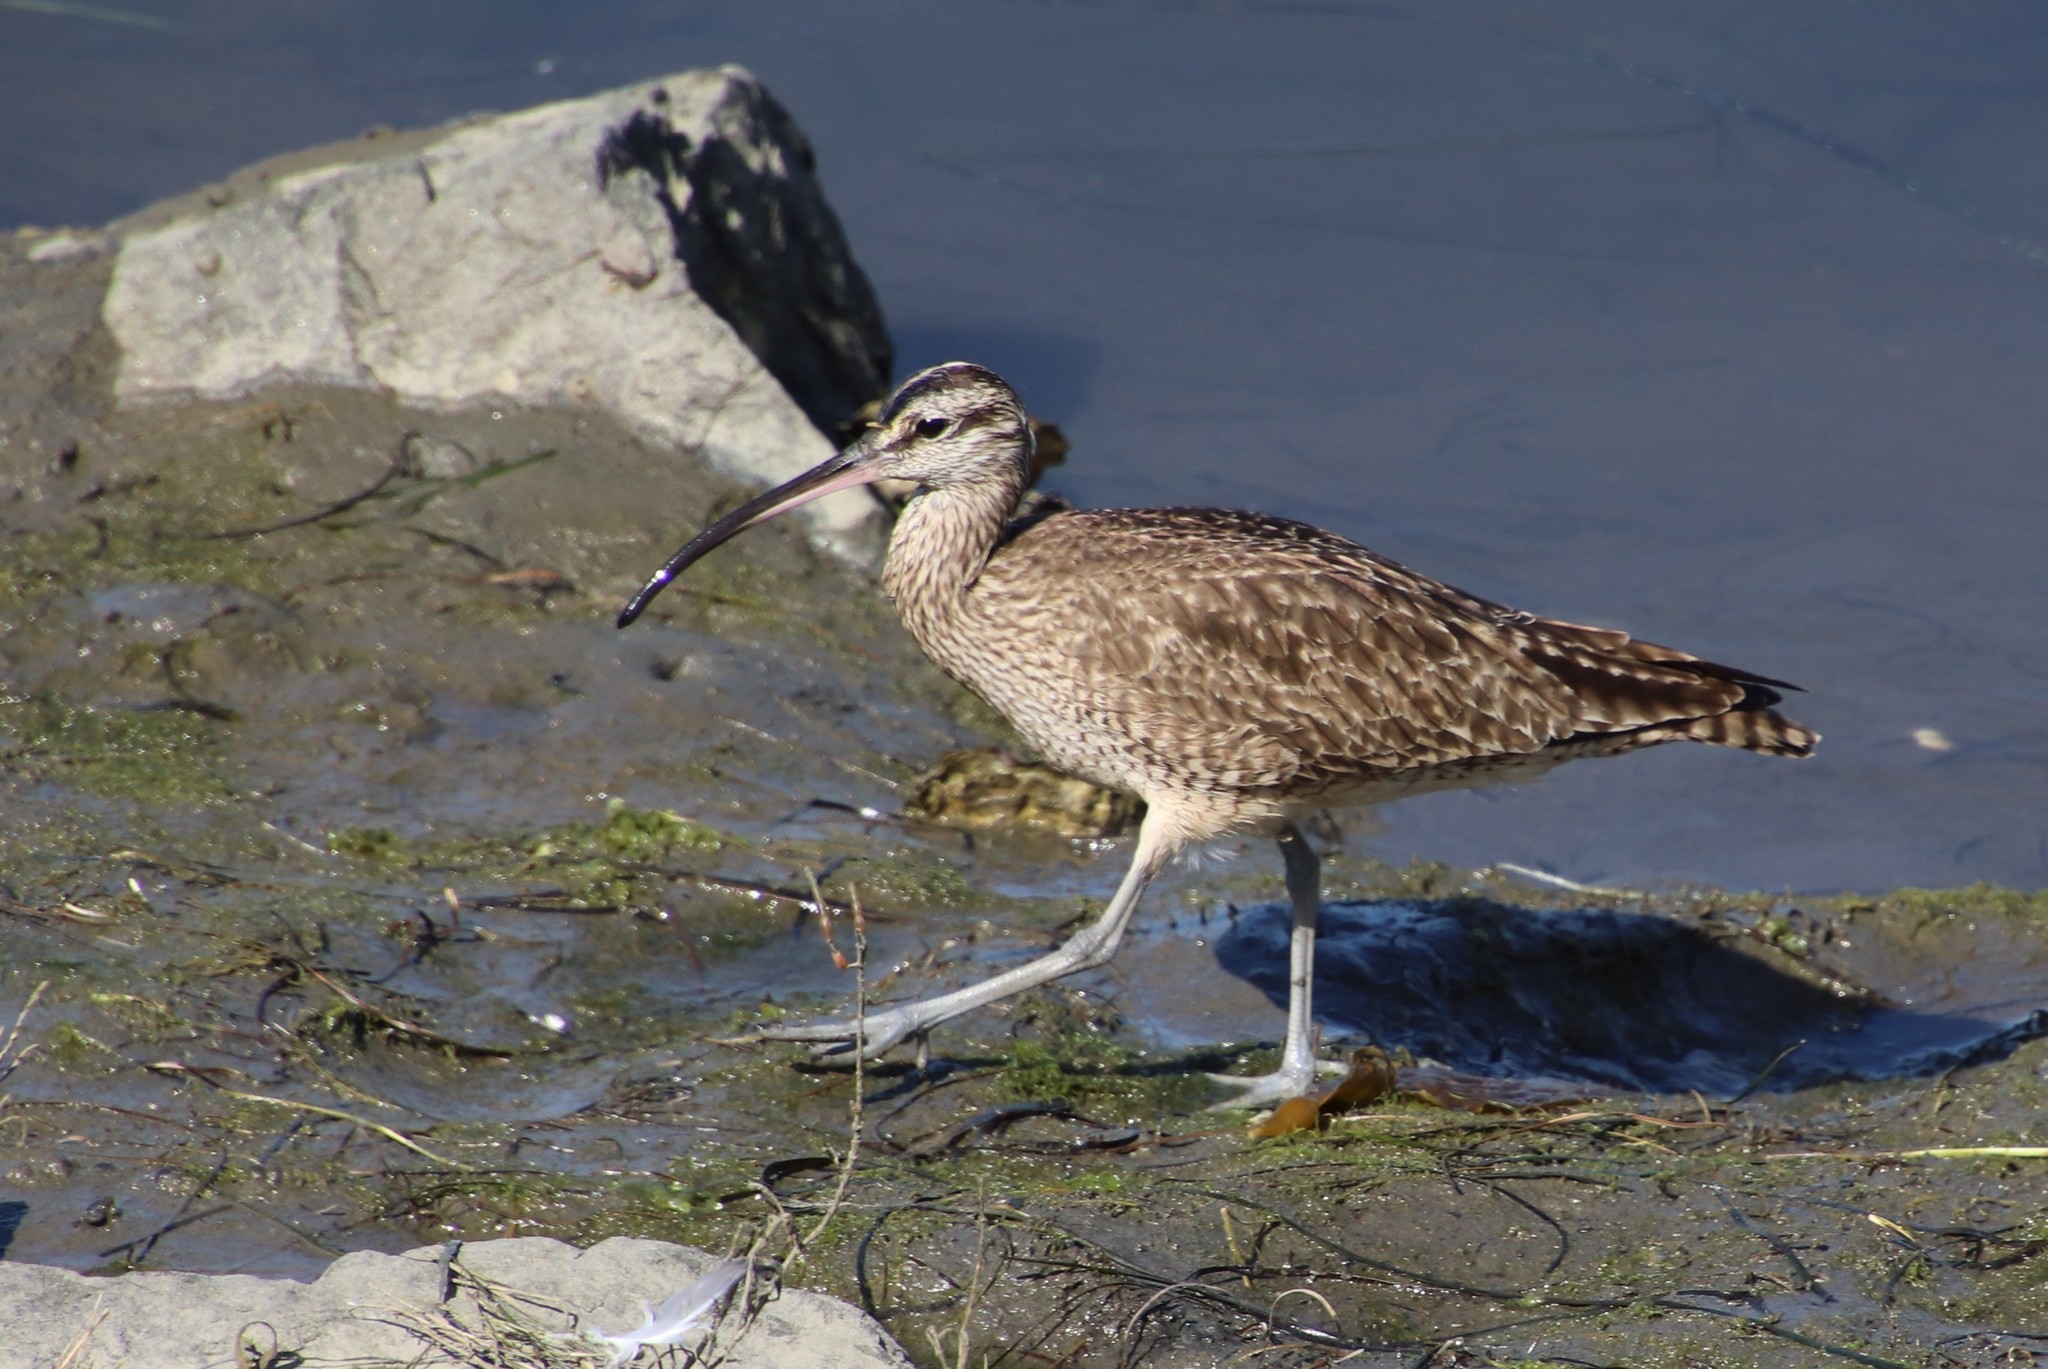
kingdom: Animalia
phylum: Chordata
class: Aves
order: Charadriiformes
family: Scolopacidae
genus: Numenius
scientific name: Numenius phaeopus
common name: Whimbrel
